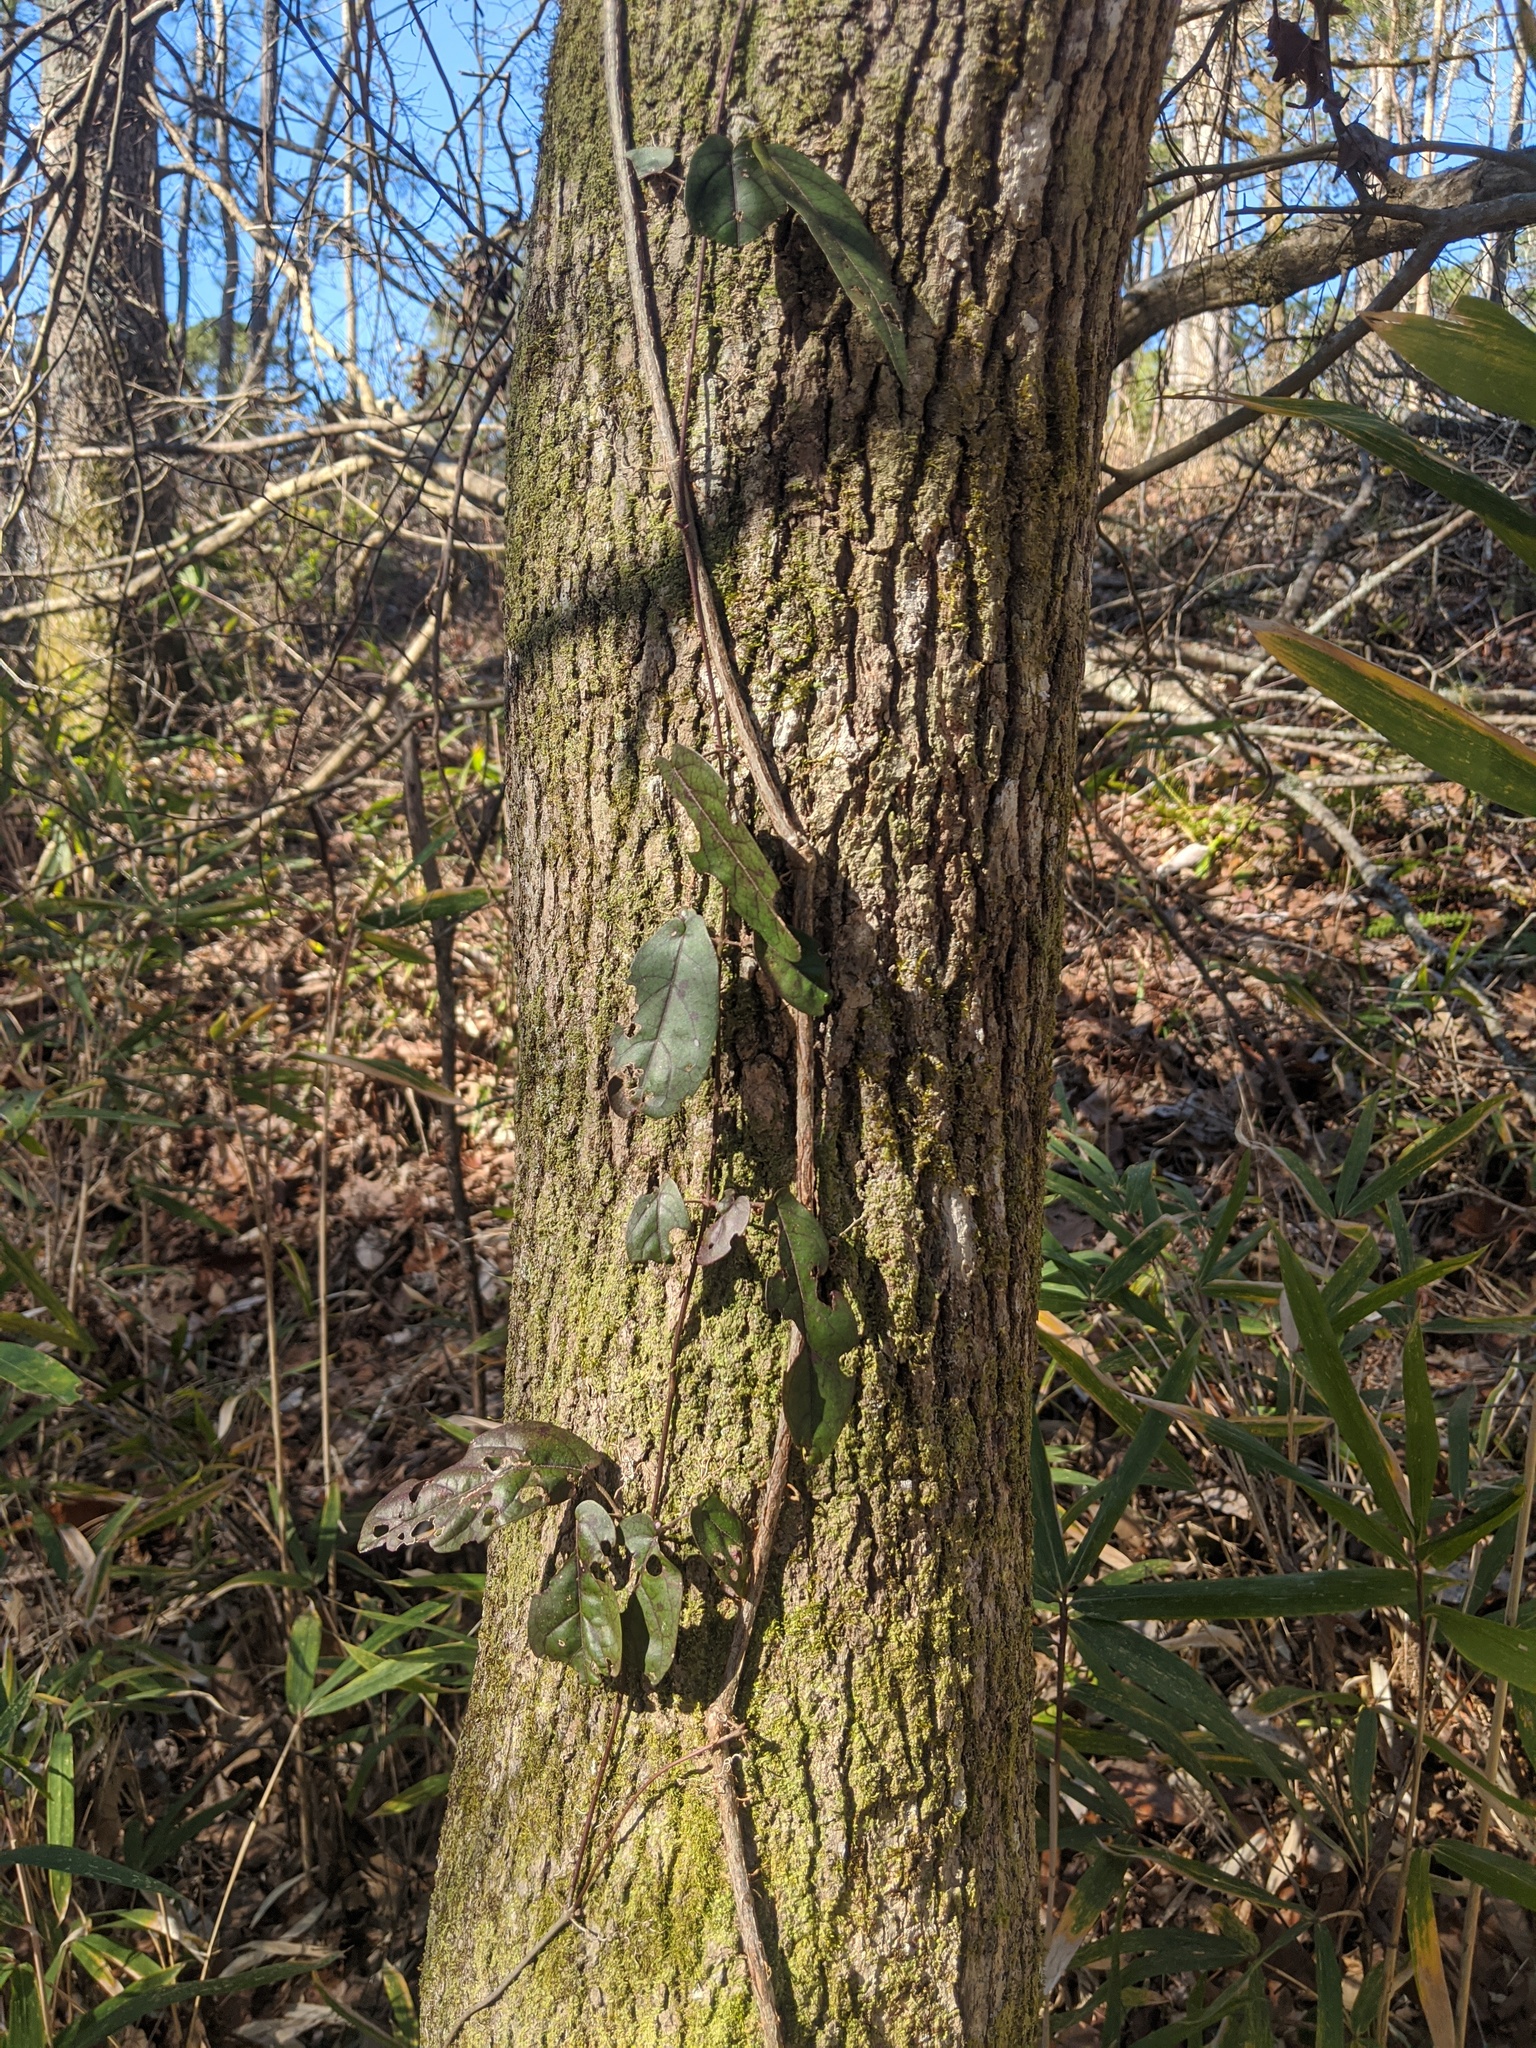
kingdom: Plantae
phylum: Tracheophyta
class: Magnoliopsida
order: Lamiales
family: Bignoniaceae
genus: Bignonia
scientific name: Bignonia capreolata
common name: Crossvine
